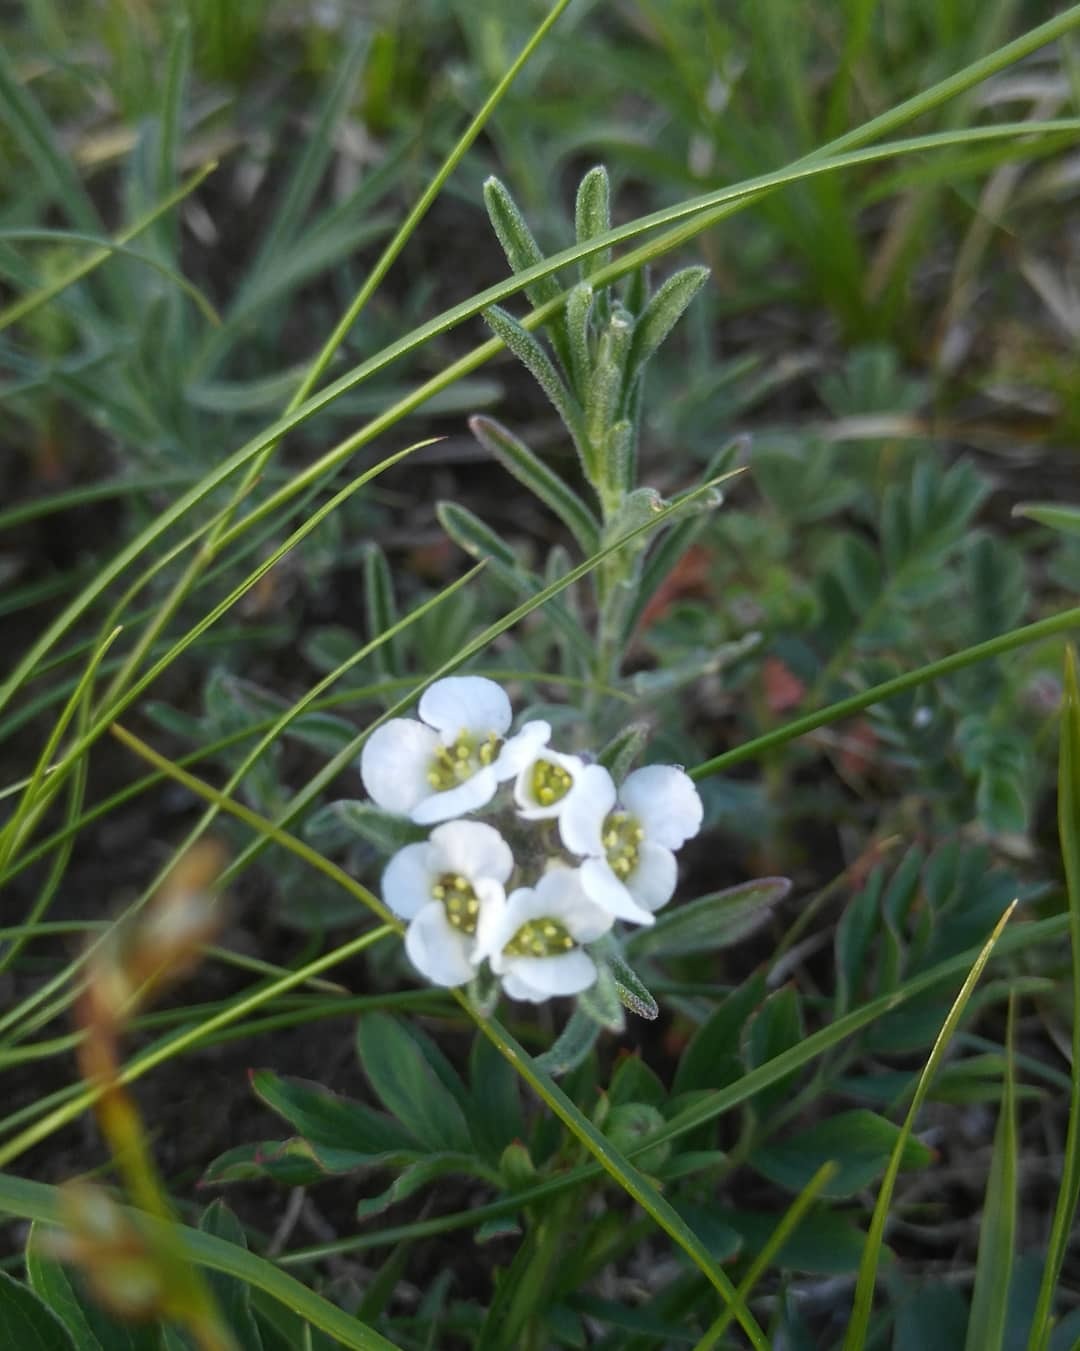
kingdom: Plantae
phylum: Tracheophyta
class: Magnoliopsida
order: Brassicales
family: Brassicaceae
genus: Stevenia
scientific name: Stevenia tenuifolia
